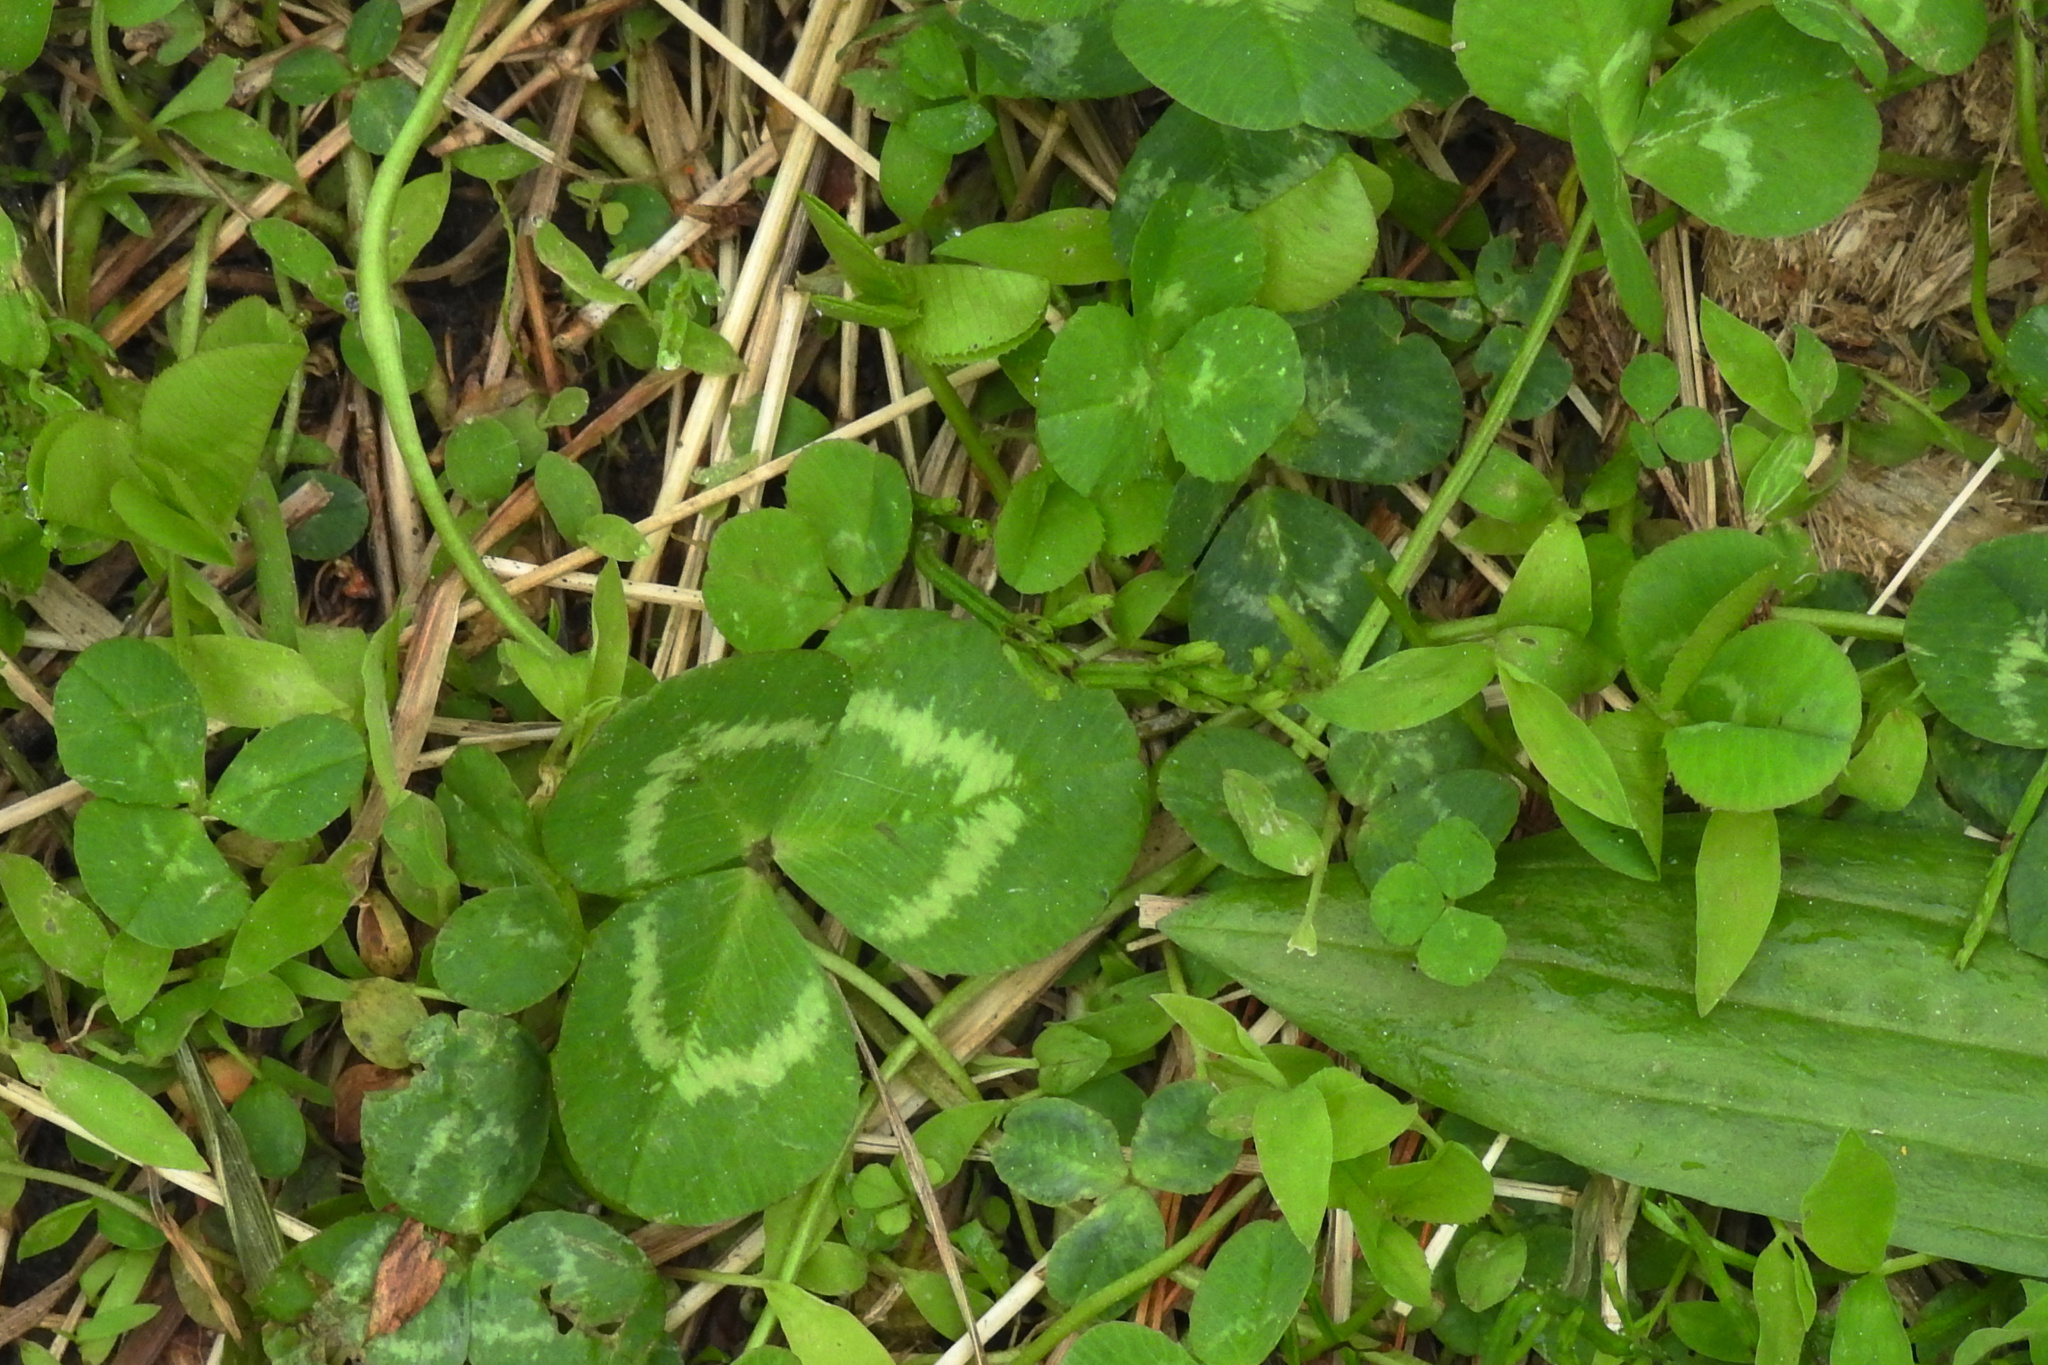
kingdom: Plantae
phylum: Tracheophyta
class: Magnoliopsida
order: Fabales
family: Fabaceae
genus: Trifolium
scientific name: Trifolium repens
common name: White clover
